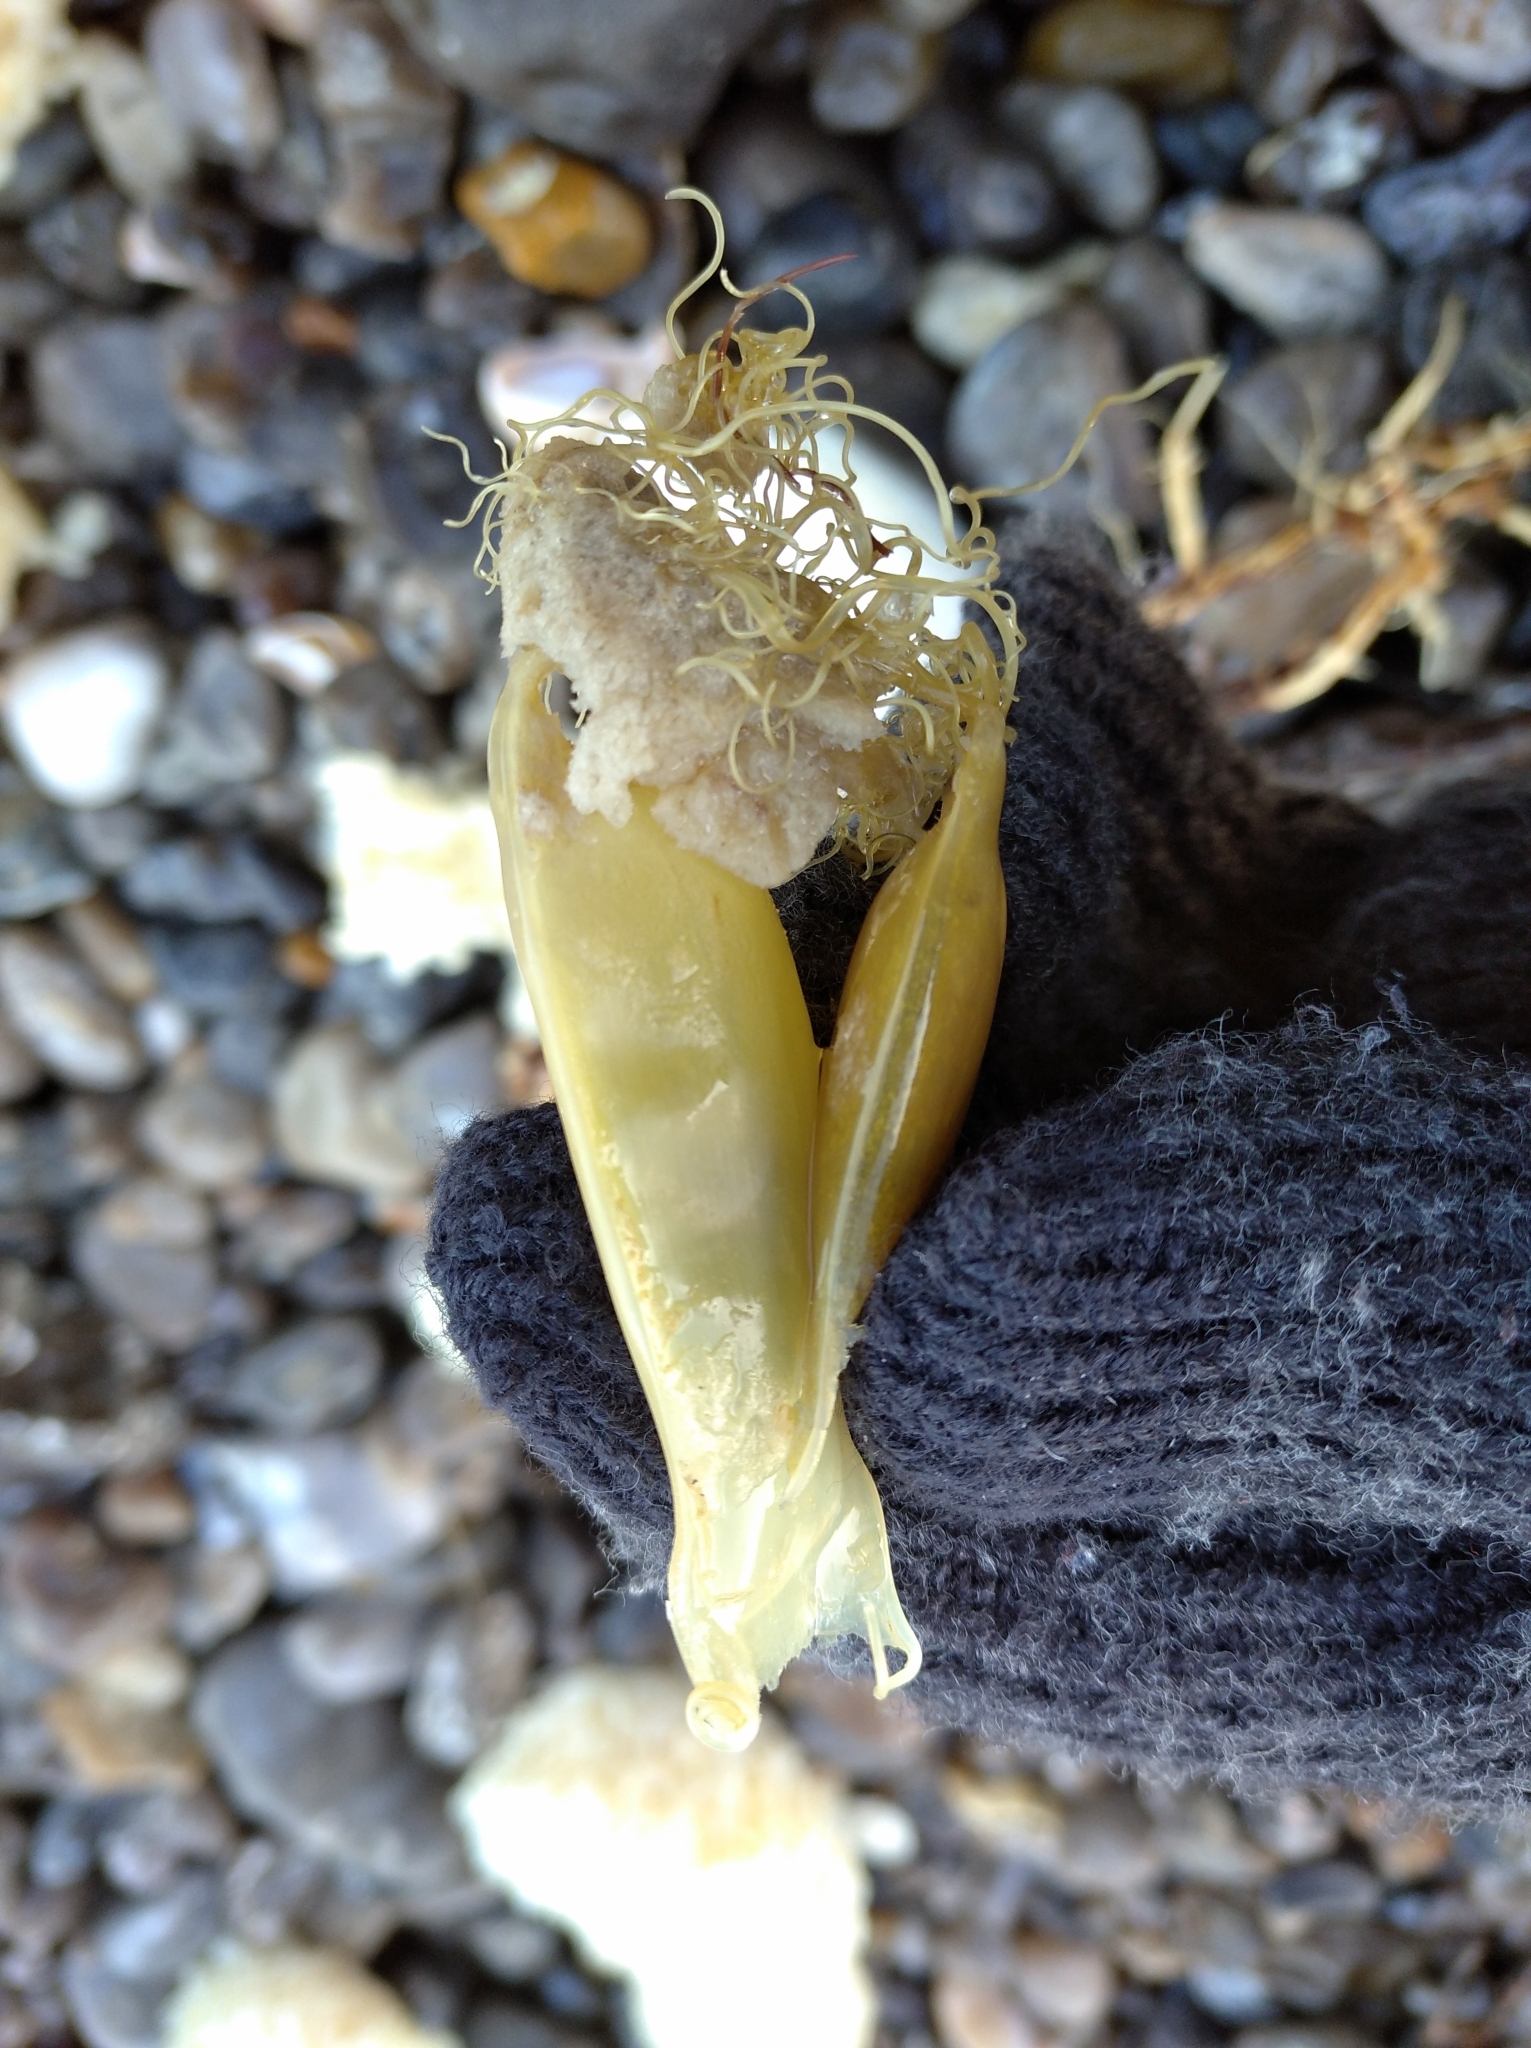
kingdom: Animalia
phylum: Chordata
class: Elasmobranchii
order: Carcharhiniformes
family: Scyliorhinidae
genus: Scyliorhinus
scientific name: Scyliorhinus canicula
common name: Lesser spotted dogfish
